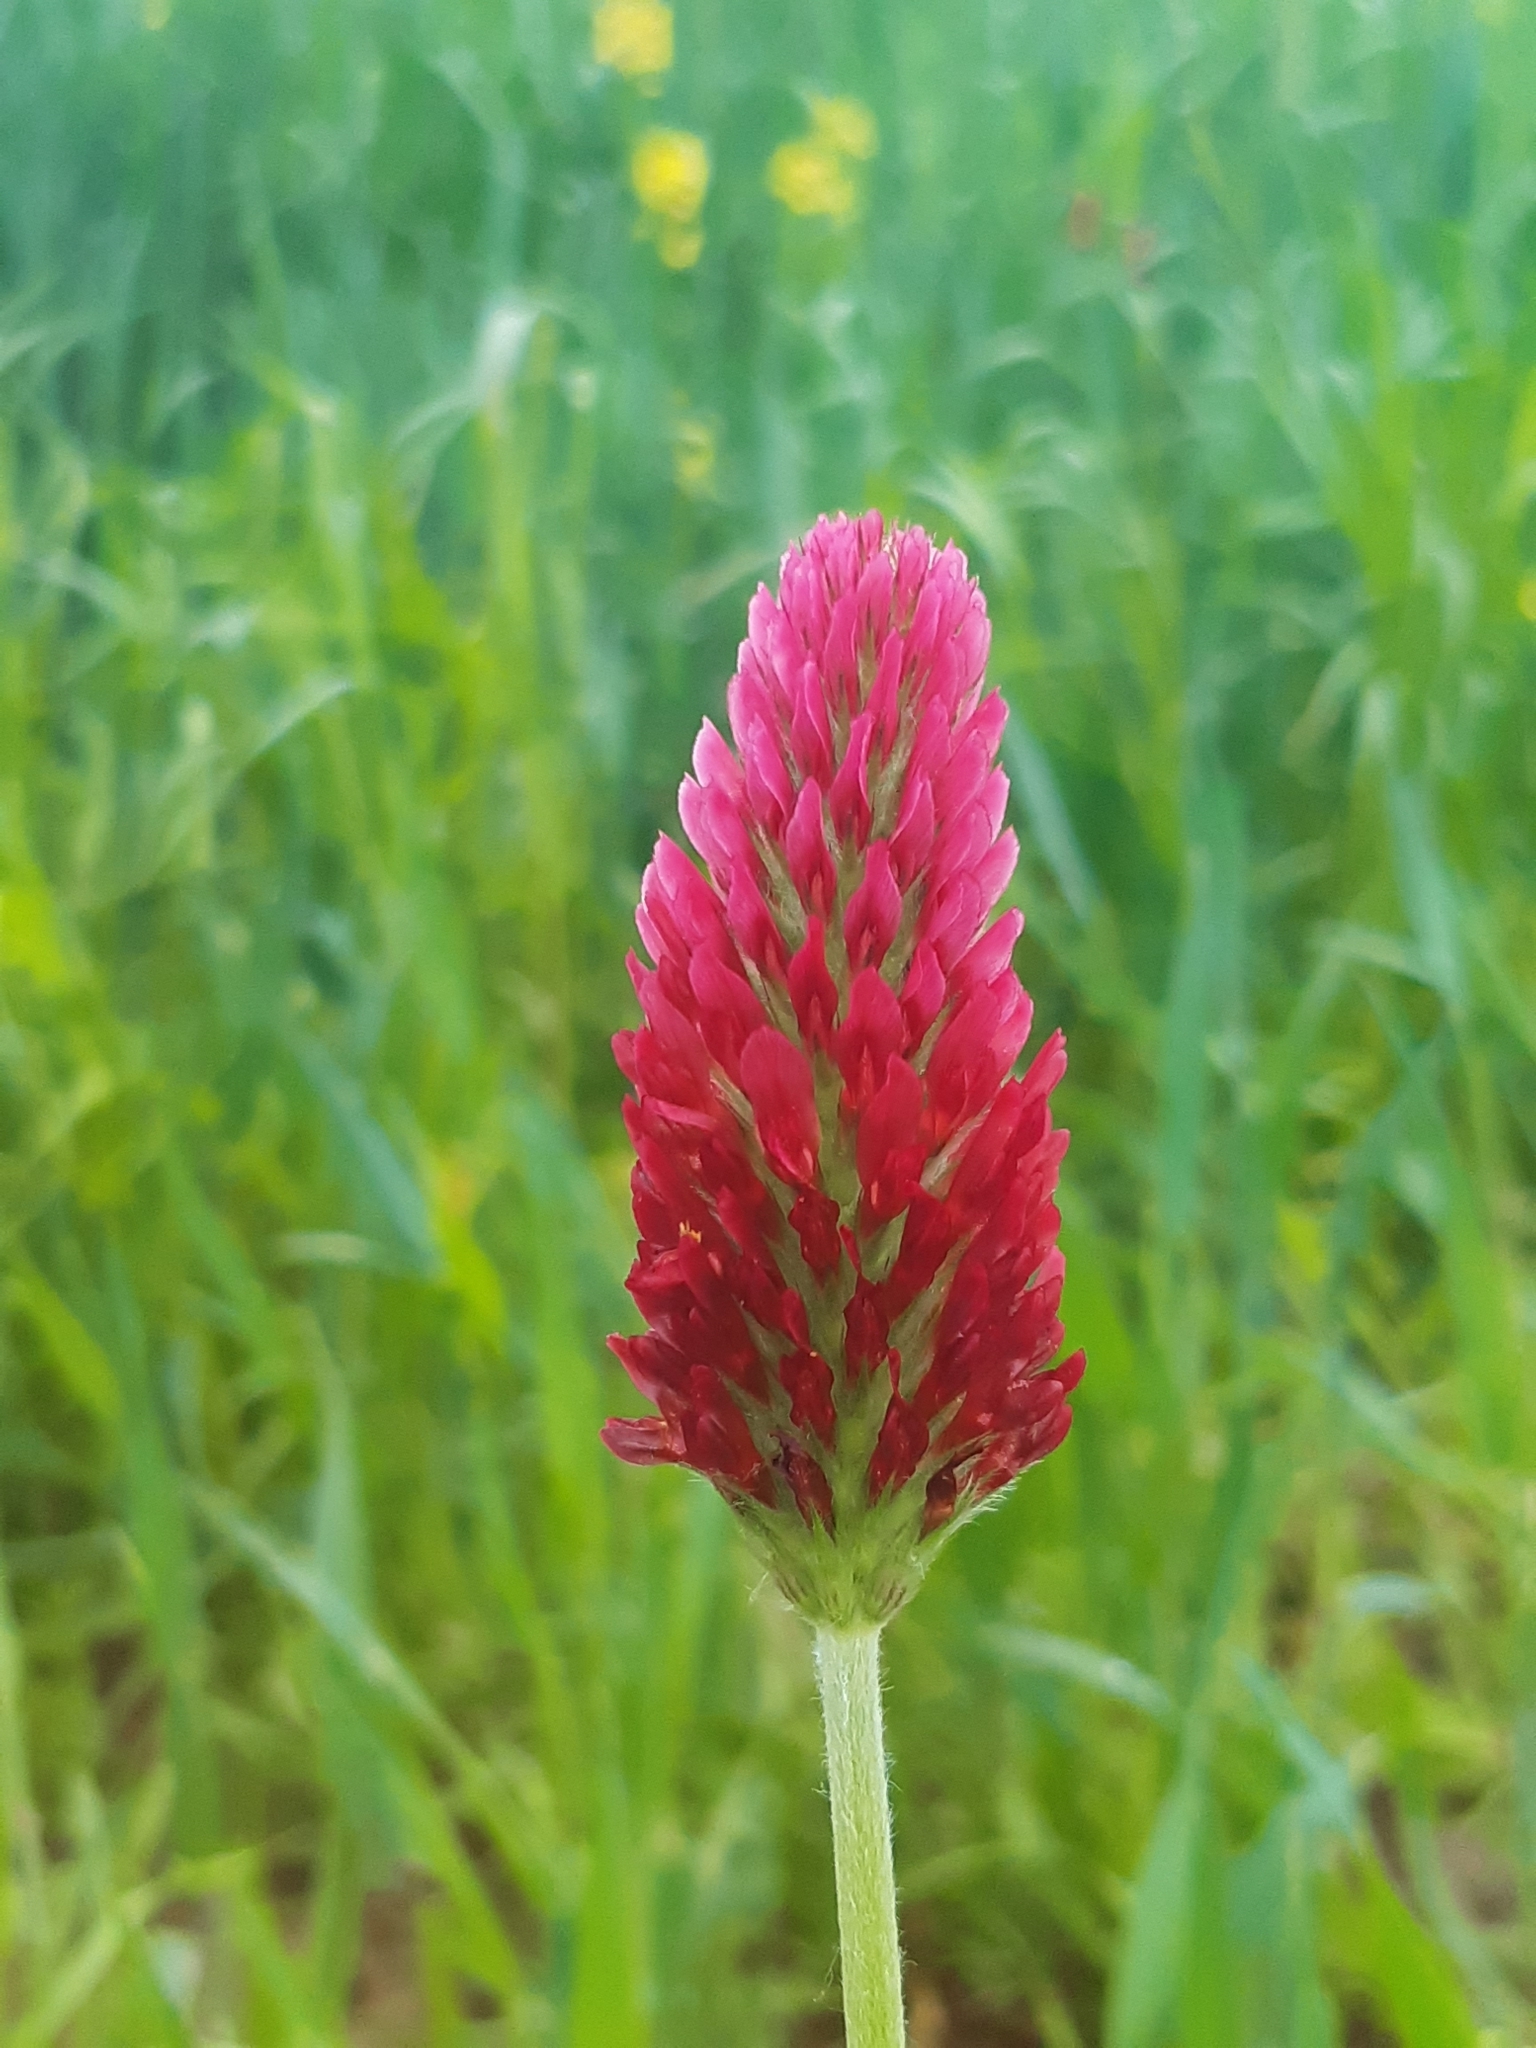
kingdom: Plantae
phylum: Tracheophyta
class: Magnoliopsida
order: Fabales
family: Fabaceae
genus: Trifolium
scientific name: Trifolium incarnatum
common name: Crimson clover
